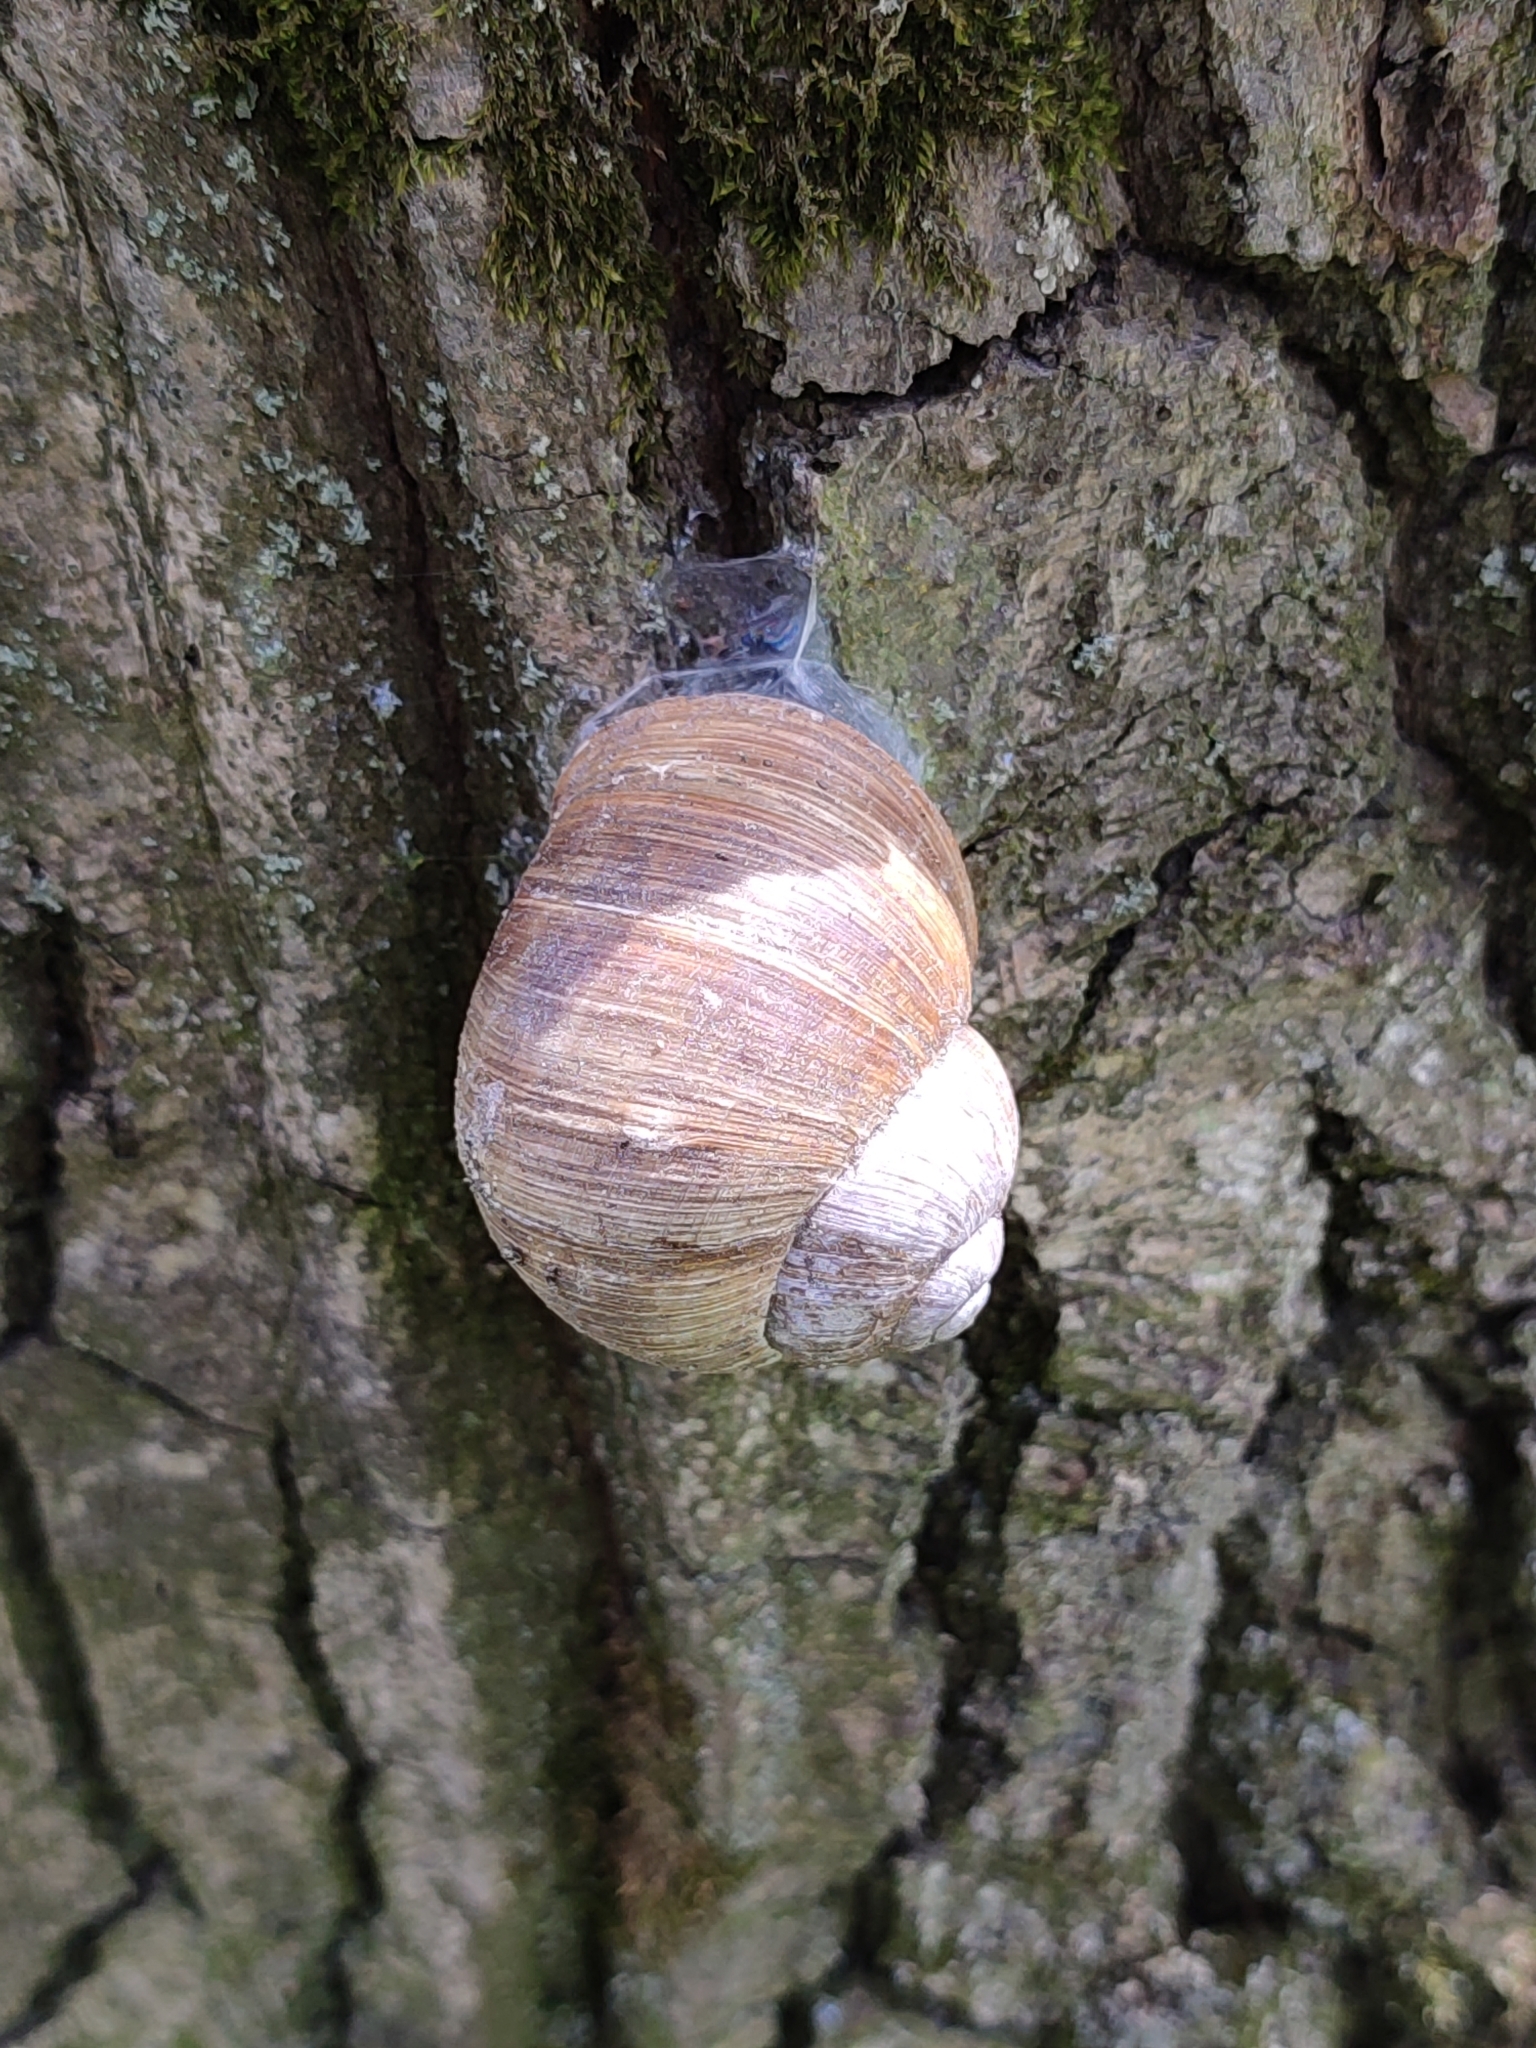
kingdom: Animalia
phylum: Mollusca
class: Gastropoda
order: Stylommatophora
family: Helicidae
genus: Helix
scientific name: Helix pomatia
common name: Roman snail
